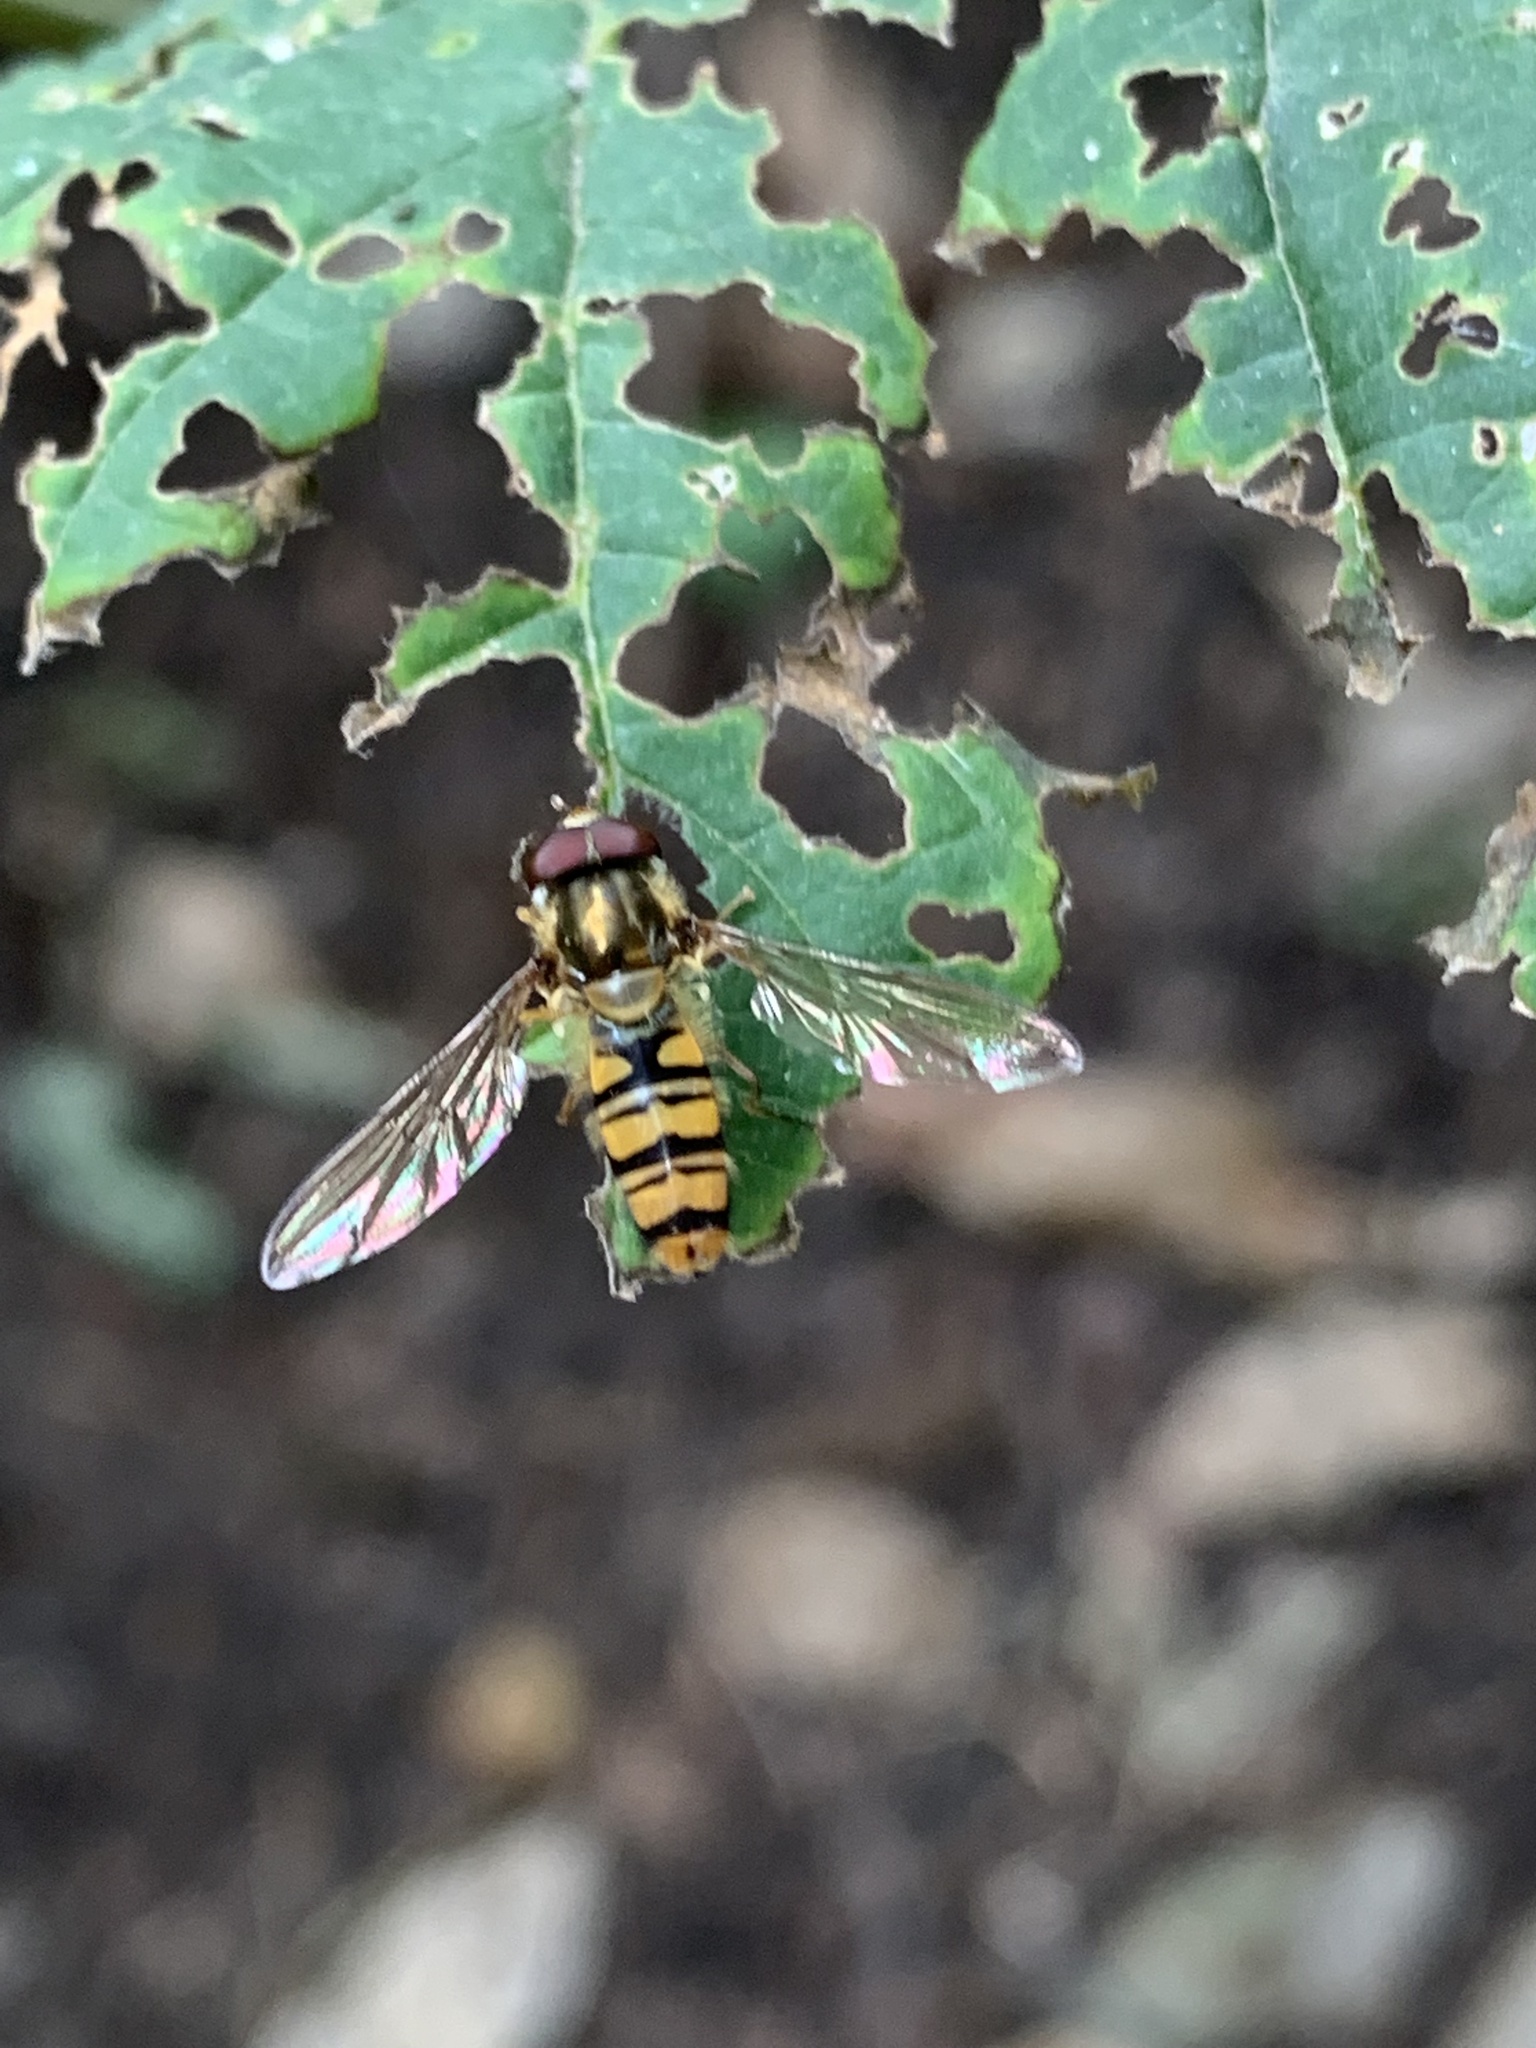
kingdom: Animalia
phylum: Arthropoda
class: Insecta
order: Diptera
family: Syrphidae
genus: Episyrphus
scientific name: Episyrphus balteatus
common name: Marmalade hoverfly
